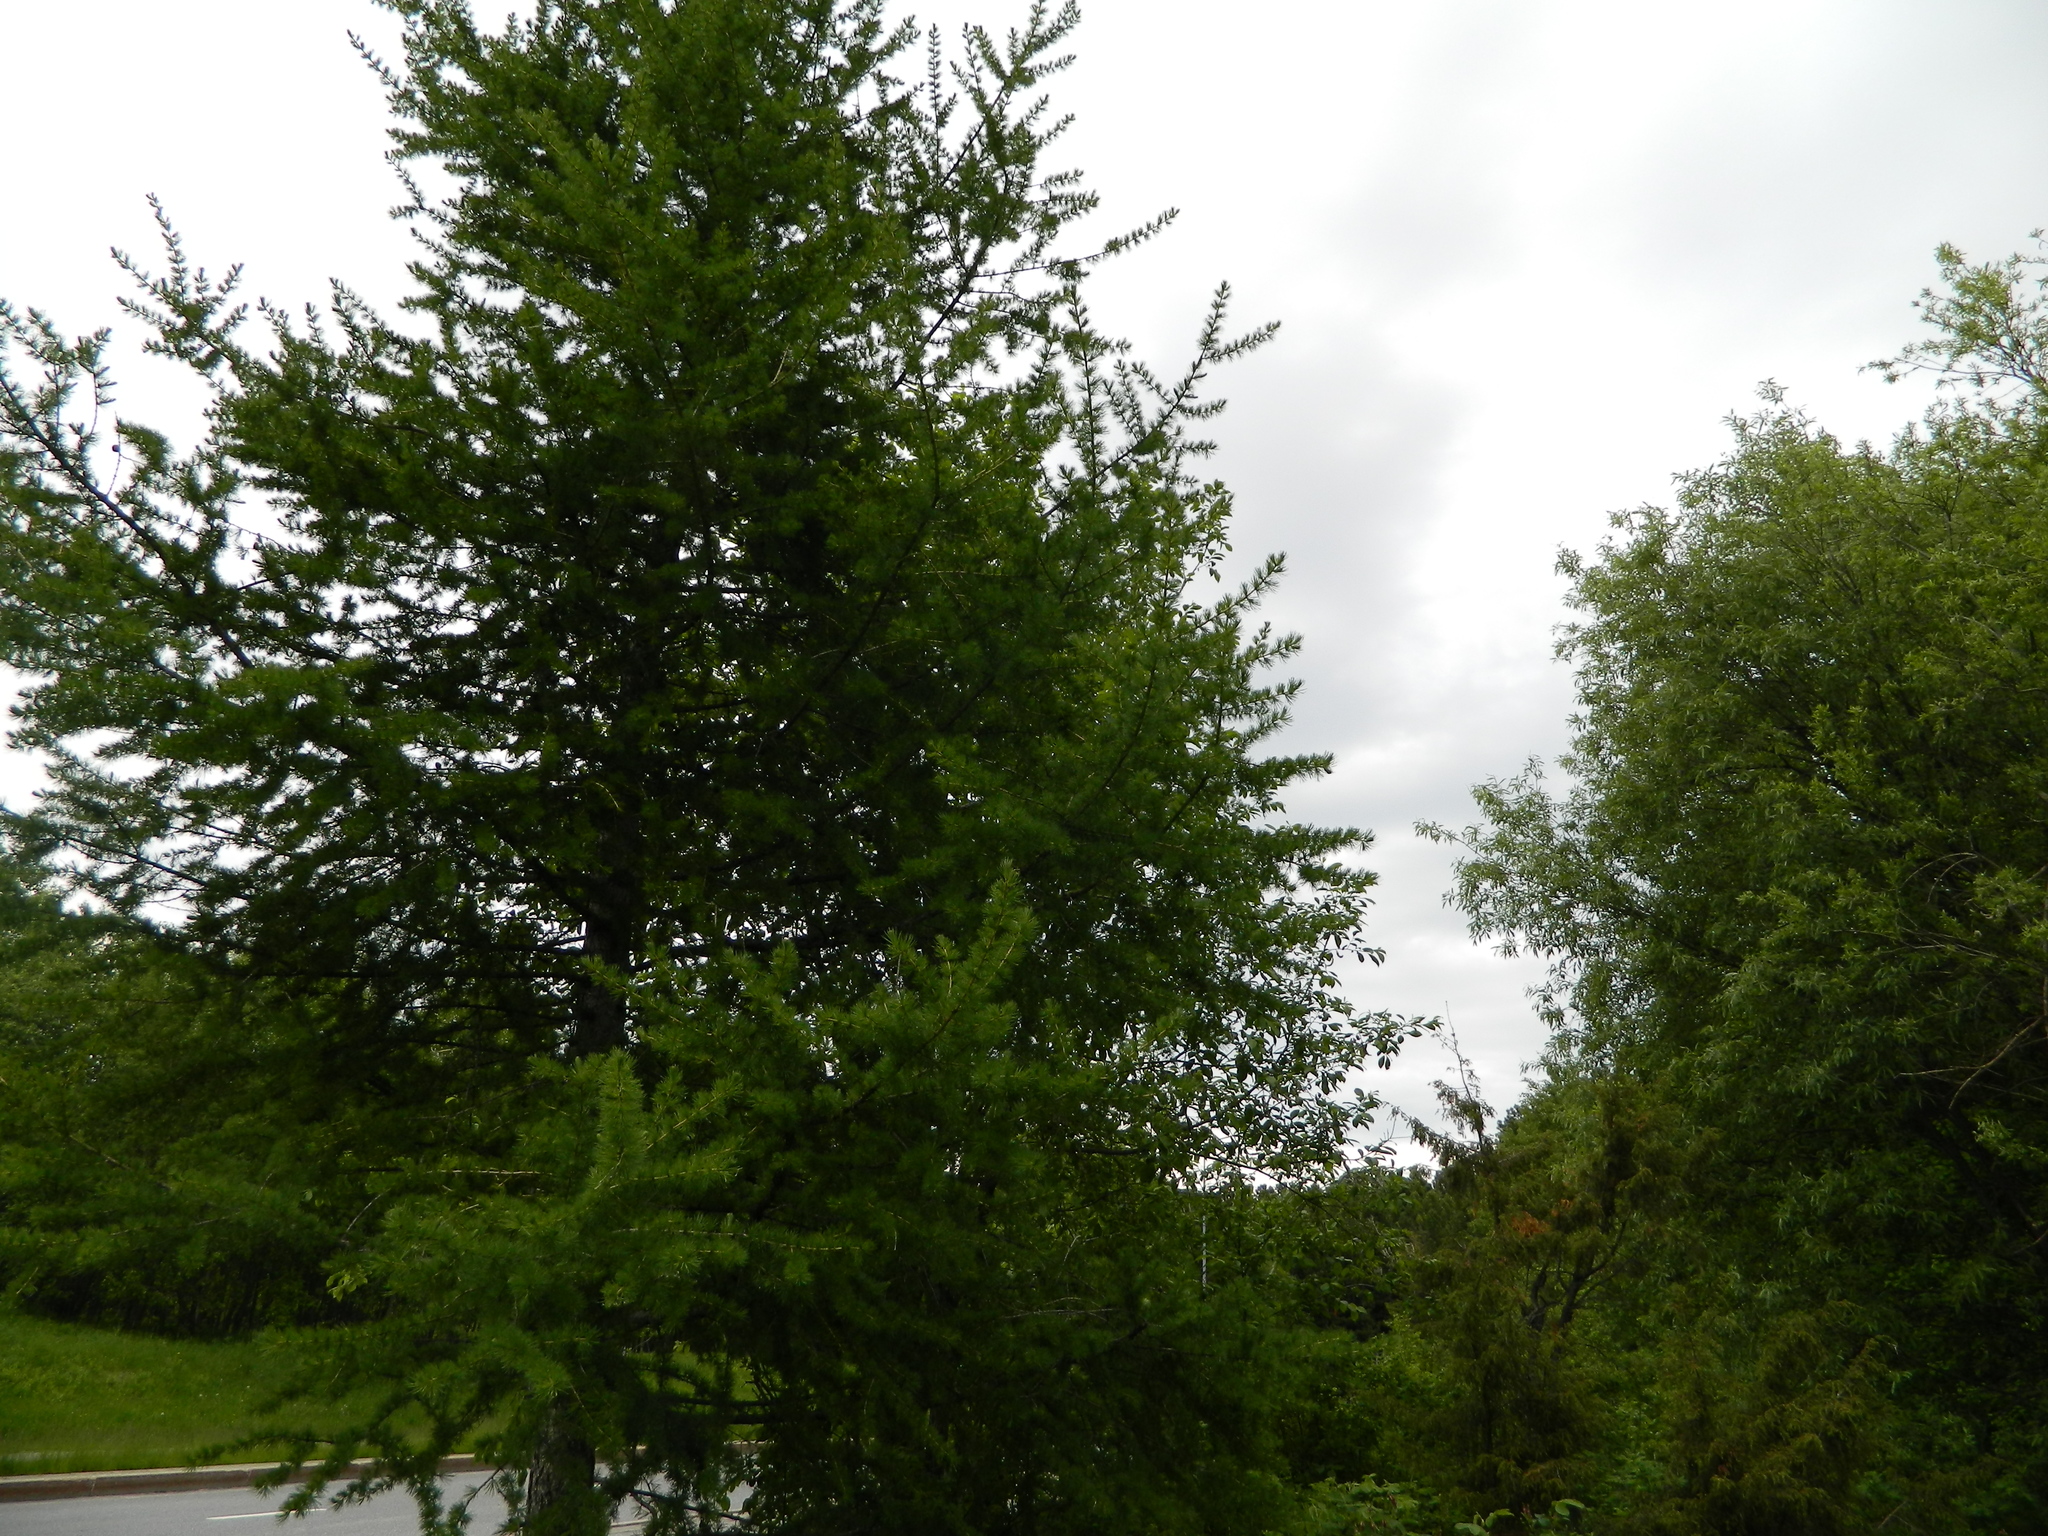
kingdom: Plantae
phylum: Tracheophyta
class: Pinopsida
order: Pinales
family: Pinaceae
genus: Larix
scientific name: Larix sibirica
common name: Siberian larch
